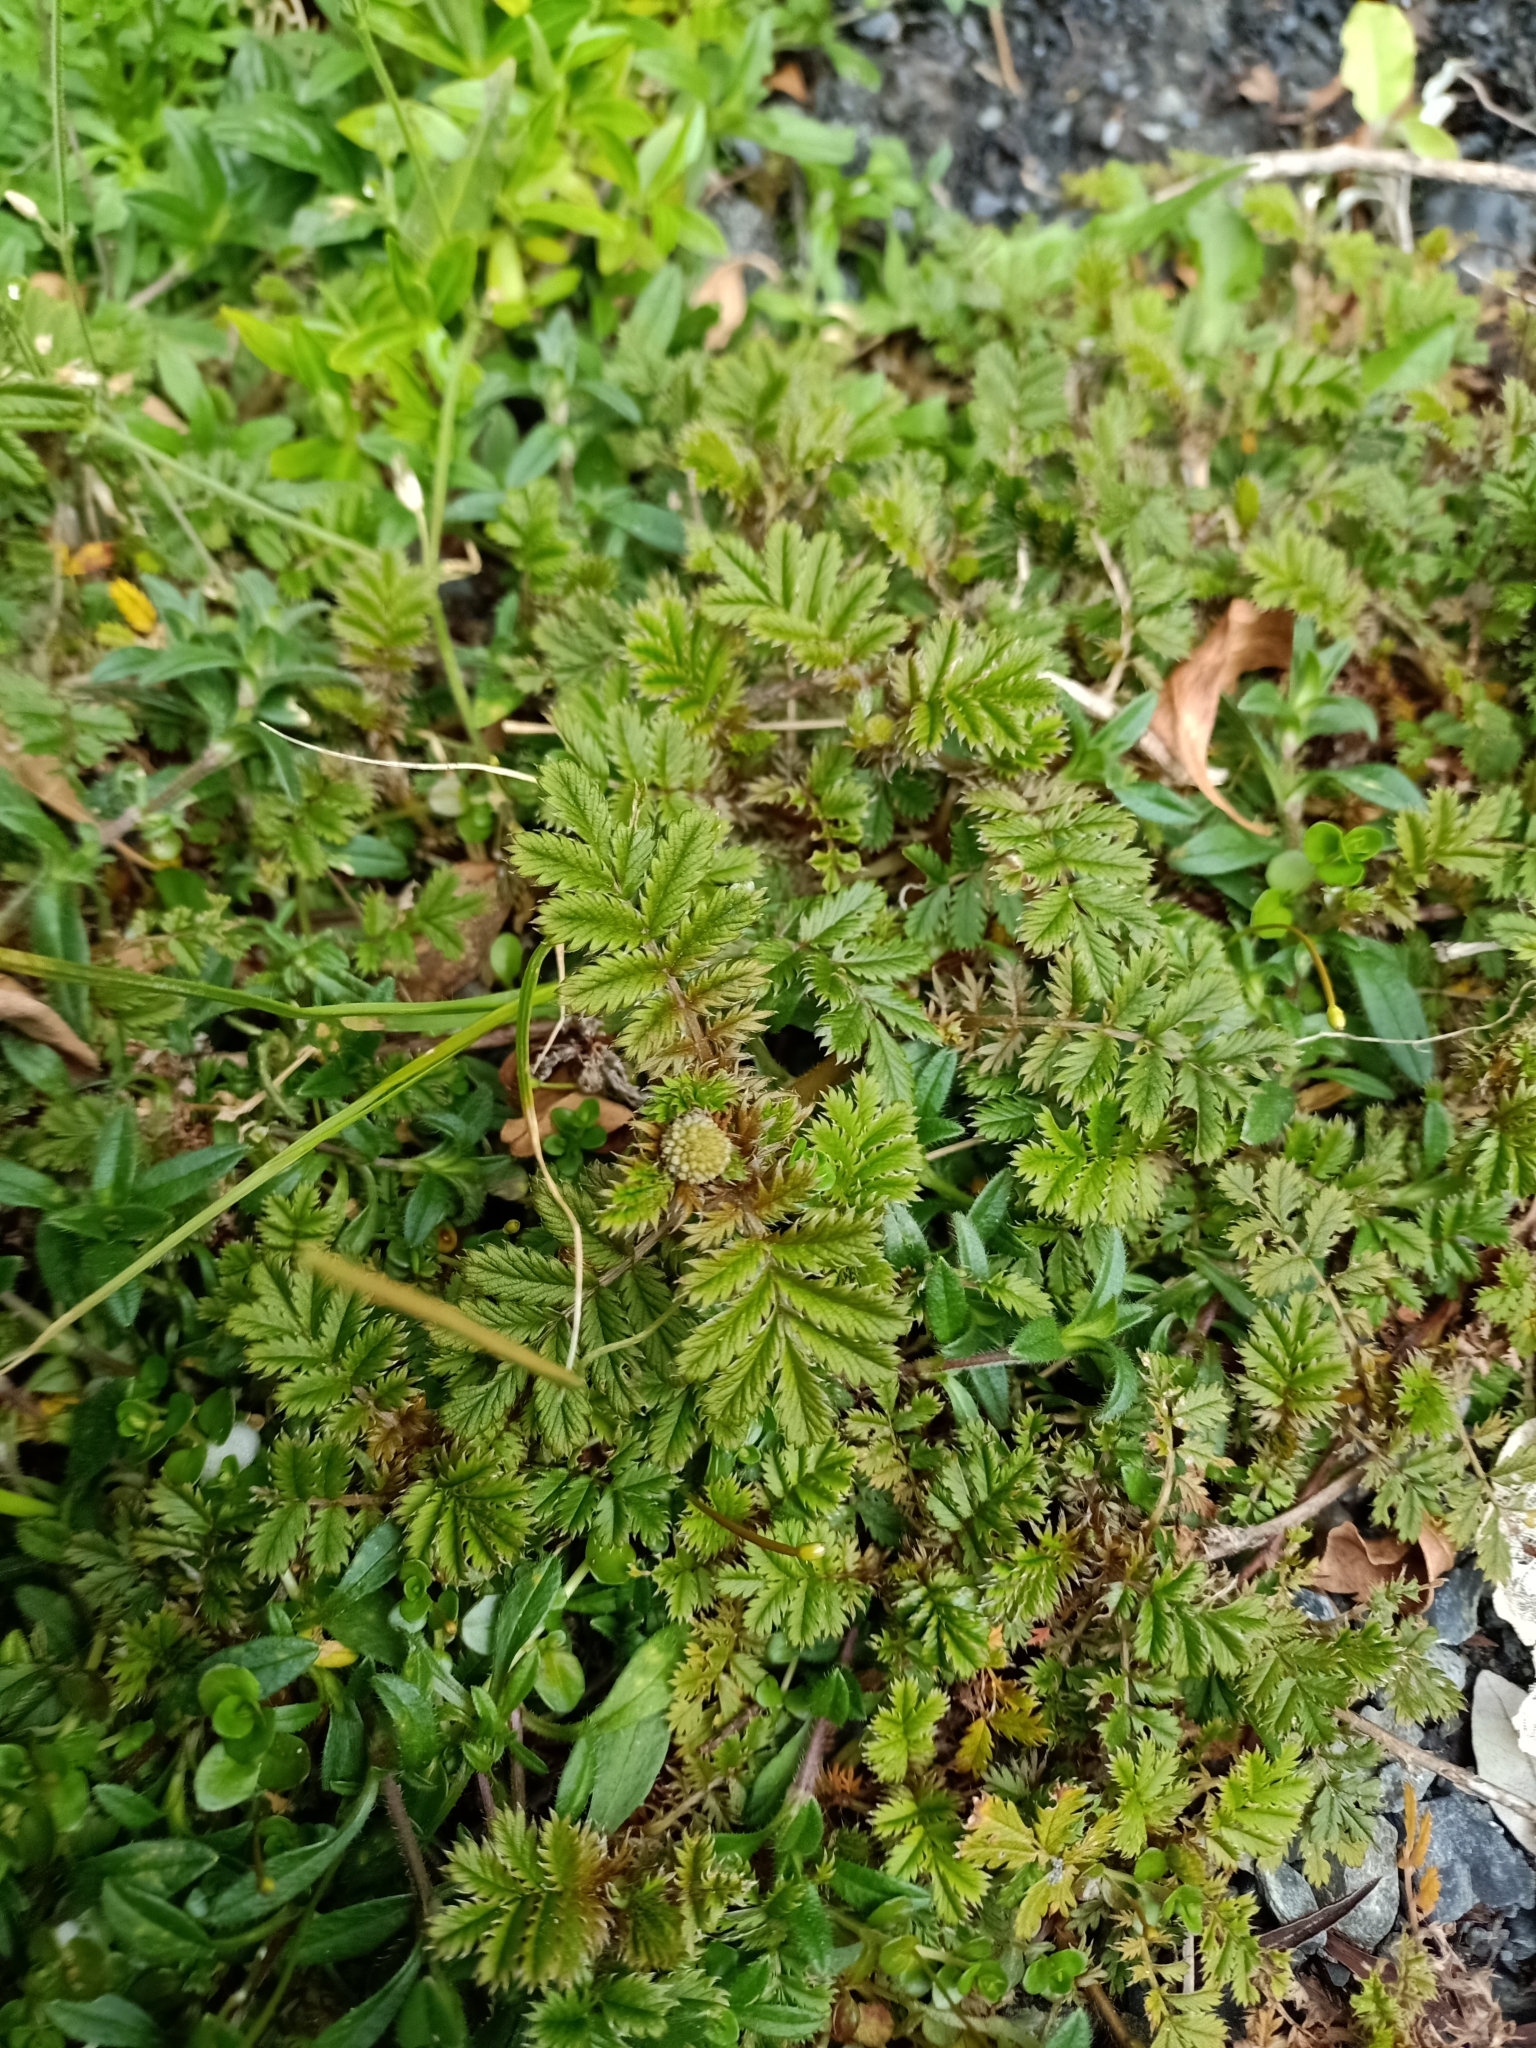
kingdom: Plantae
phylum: Tracheophyta
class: Magnoliopsida
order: Rosales
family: Rosaceae
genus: Acaena
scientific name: Acaena anserinifolia
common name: Bronze pirri-pirri-bur
